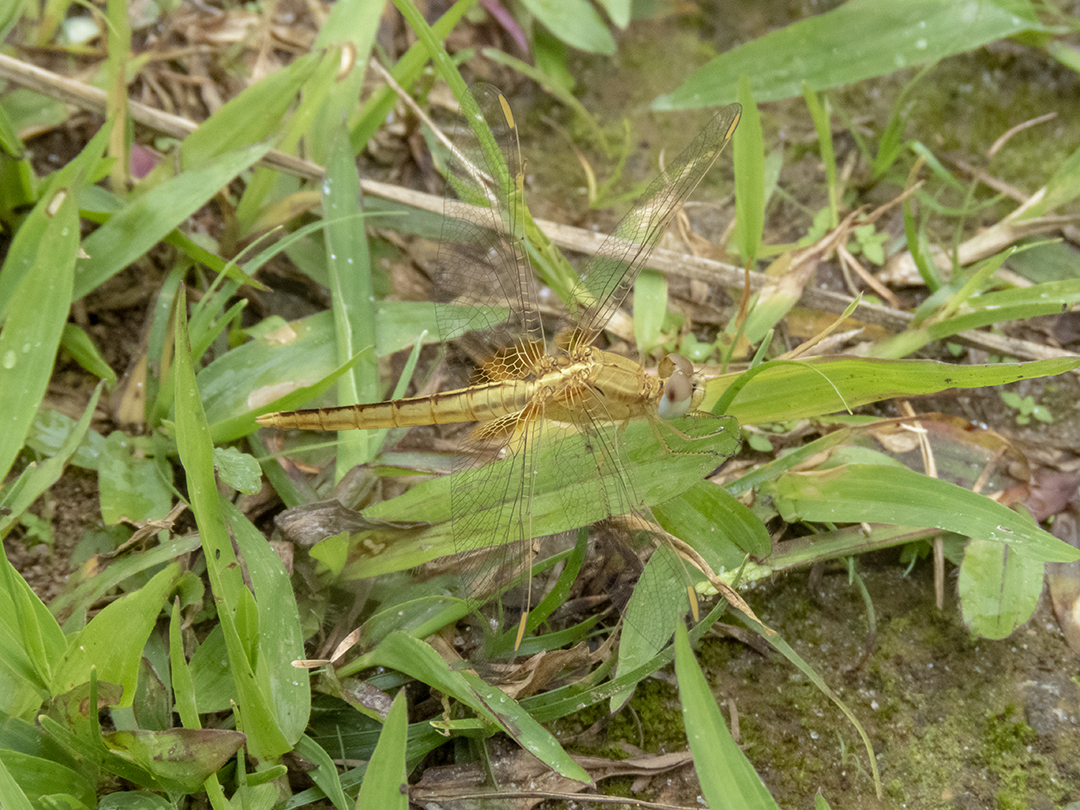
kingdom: Animalia
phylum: Arthropoda
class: Insecta
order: Odonata
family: Libellulidae
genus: Crocothemis
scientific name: Crocothemis servilia
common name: Scarlet skimmer
